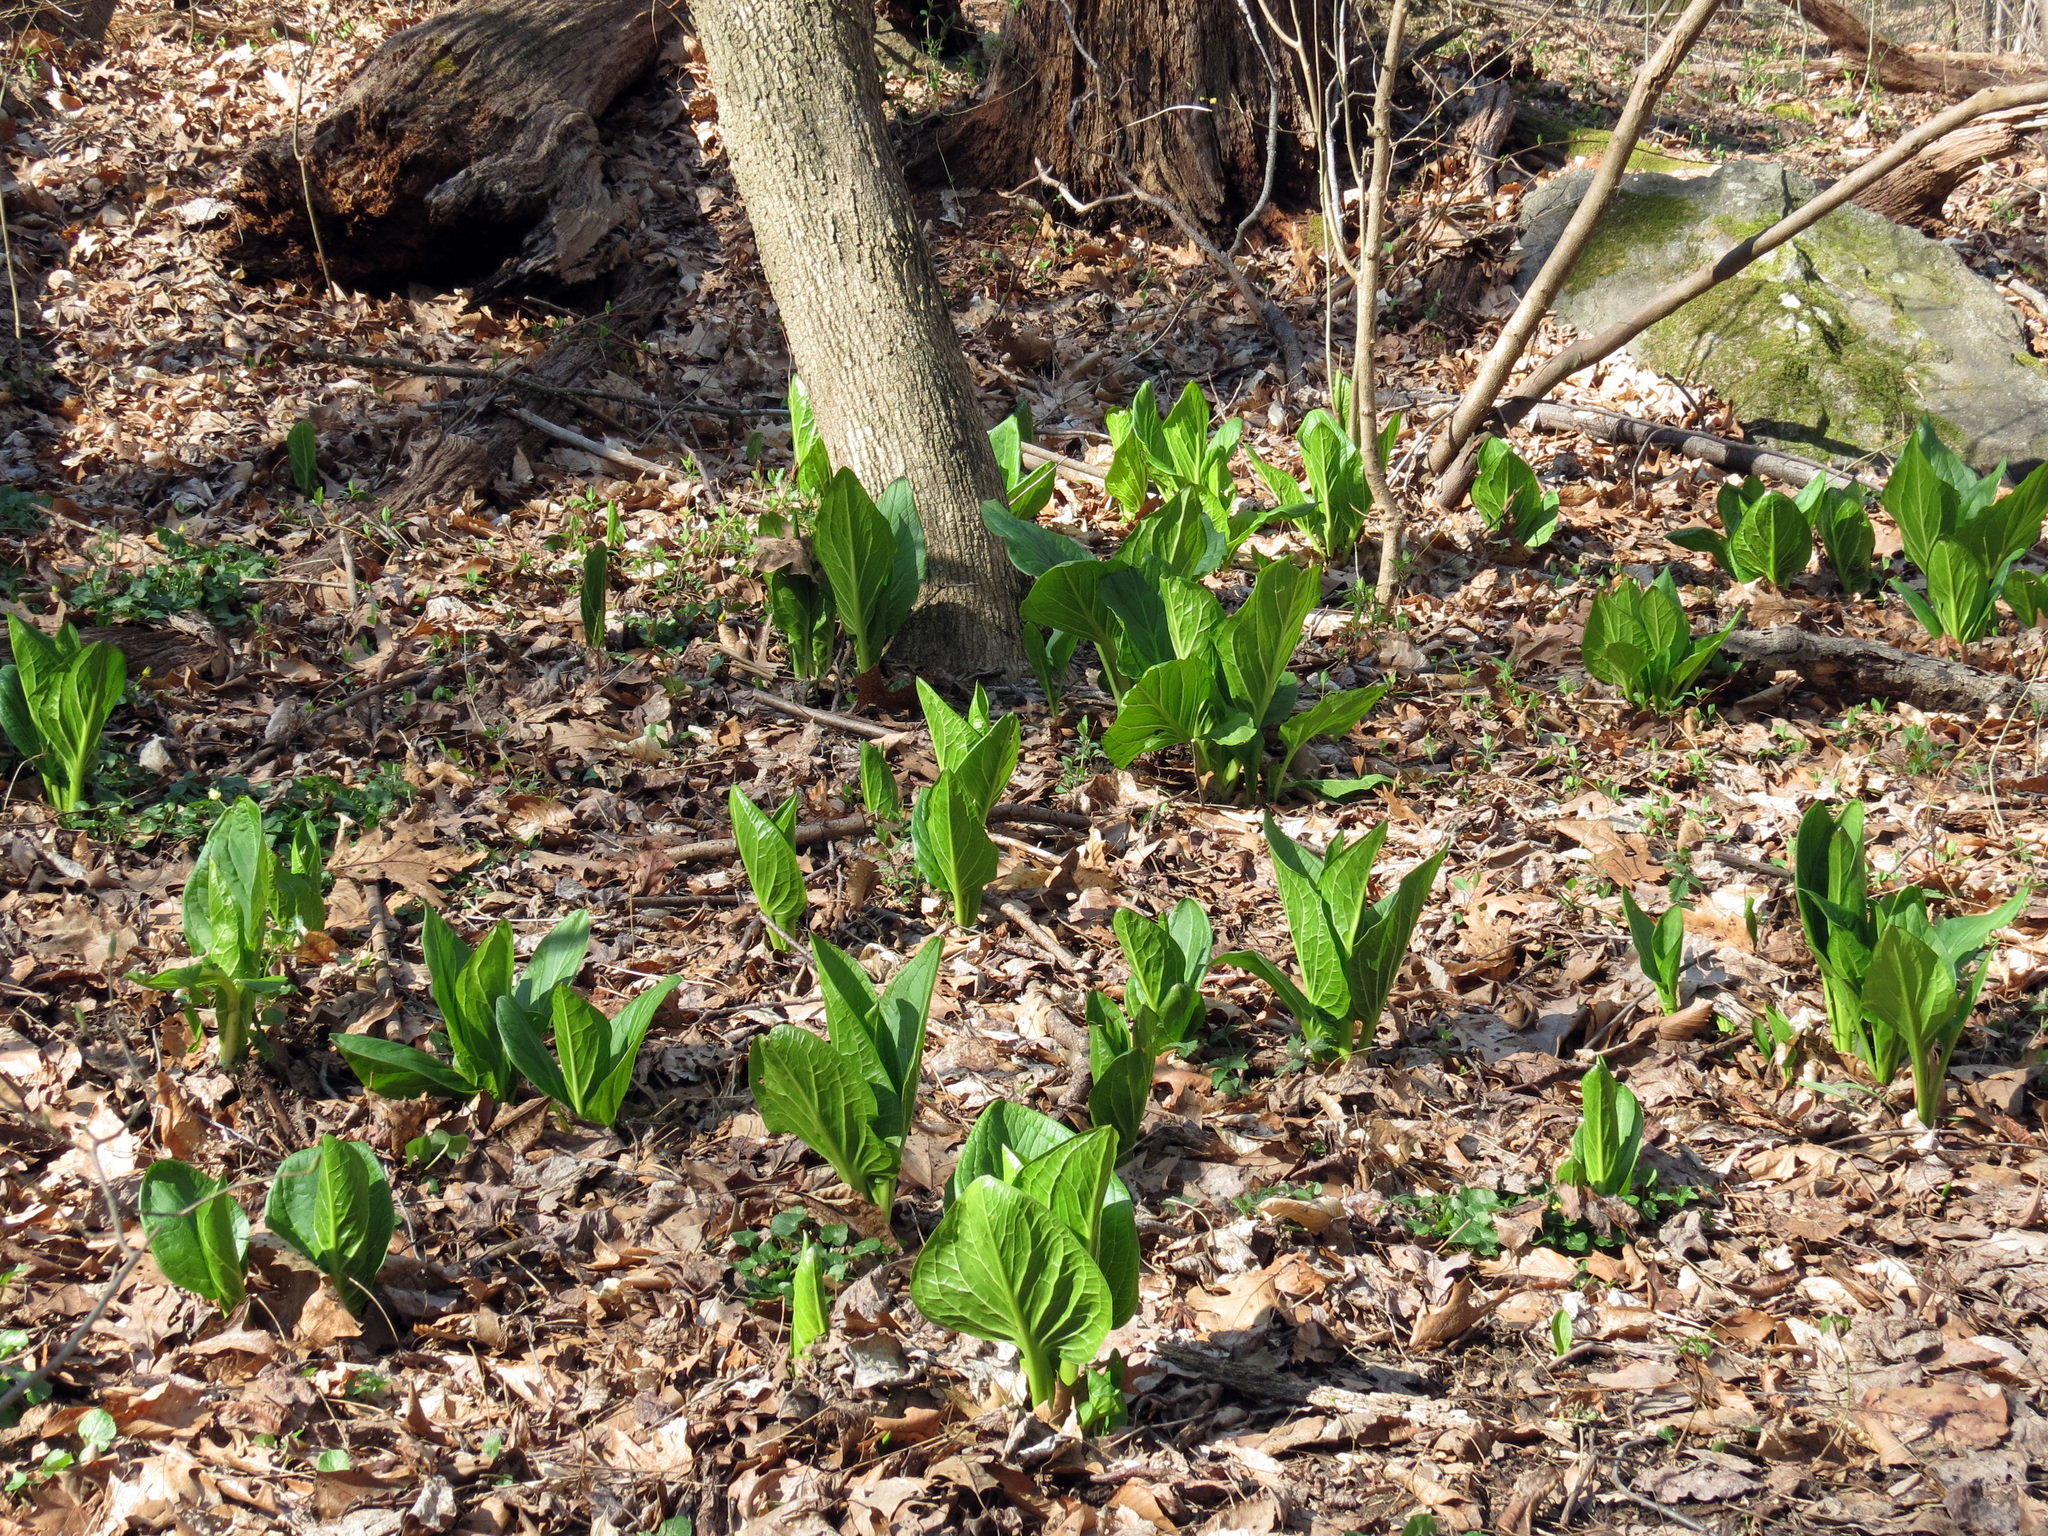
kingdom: Plantae
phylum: Tracheophyta
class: Liliopsida
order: Alismatales
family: Araceae
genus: Symplocarpus
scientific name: Symplocarpus foetidus
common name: Eastern skunk cabbage
